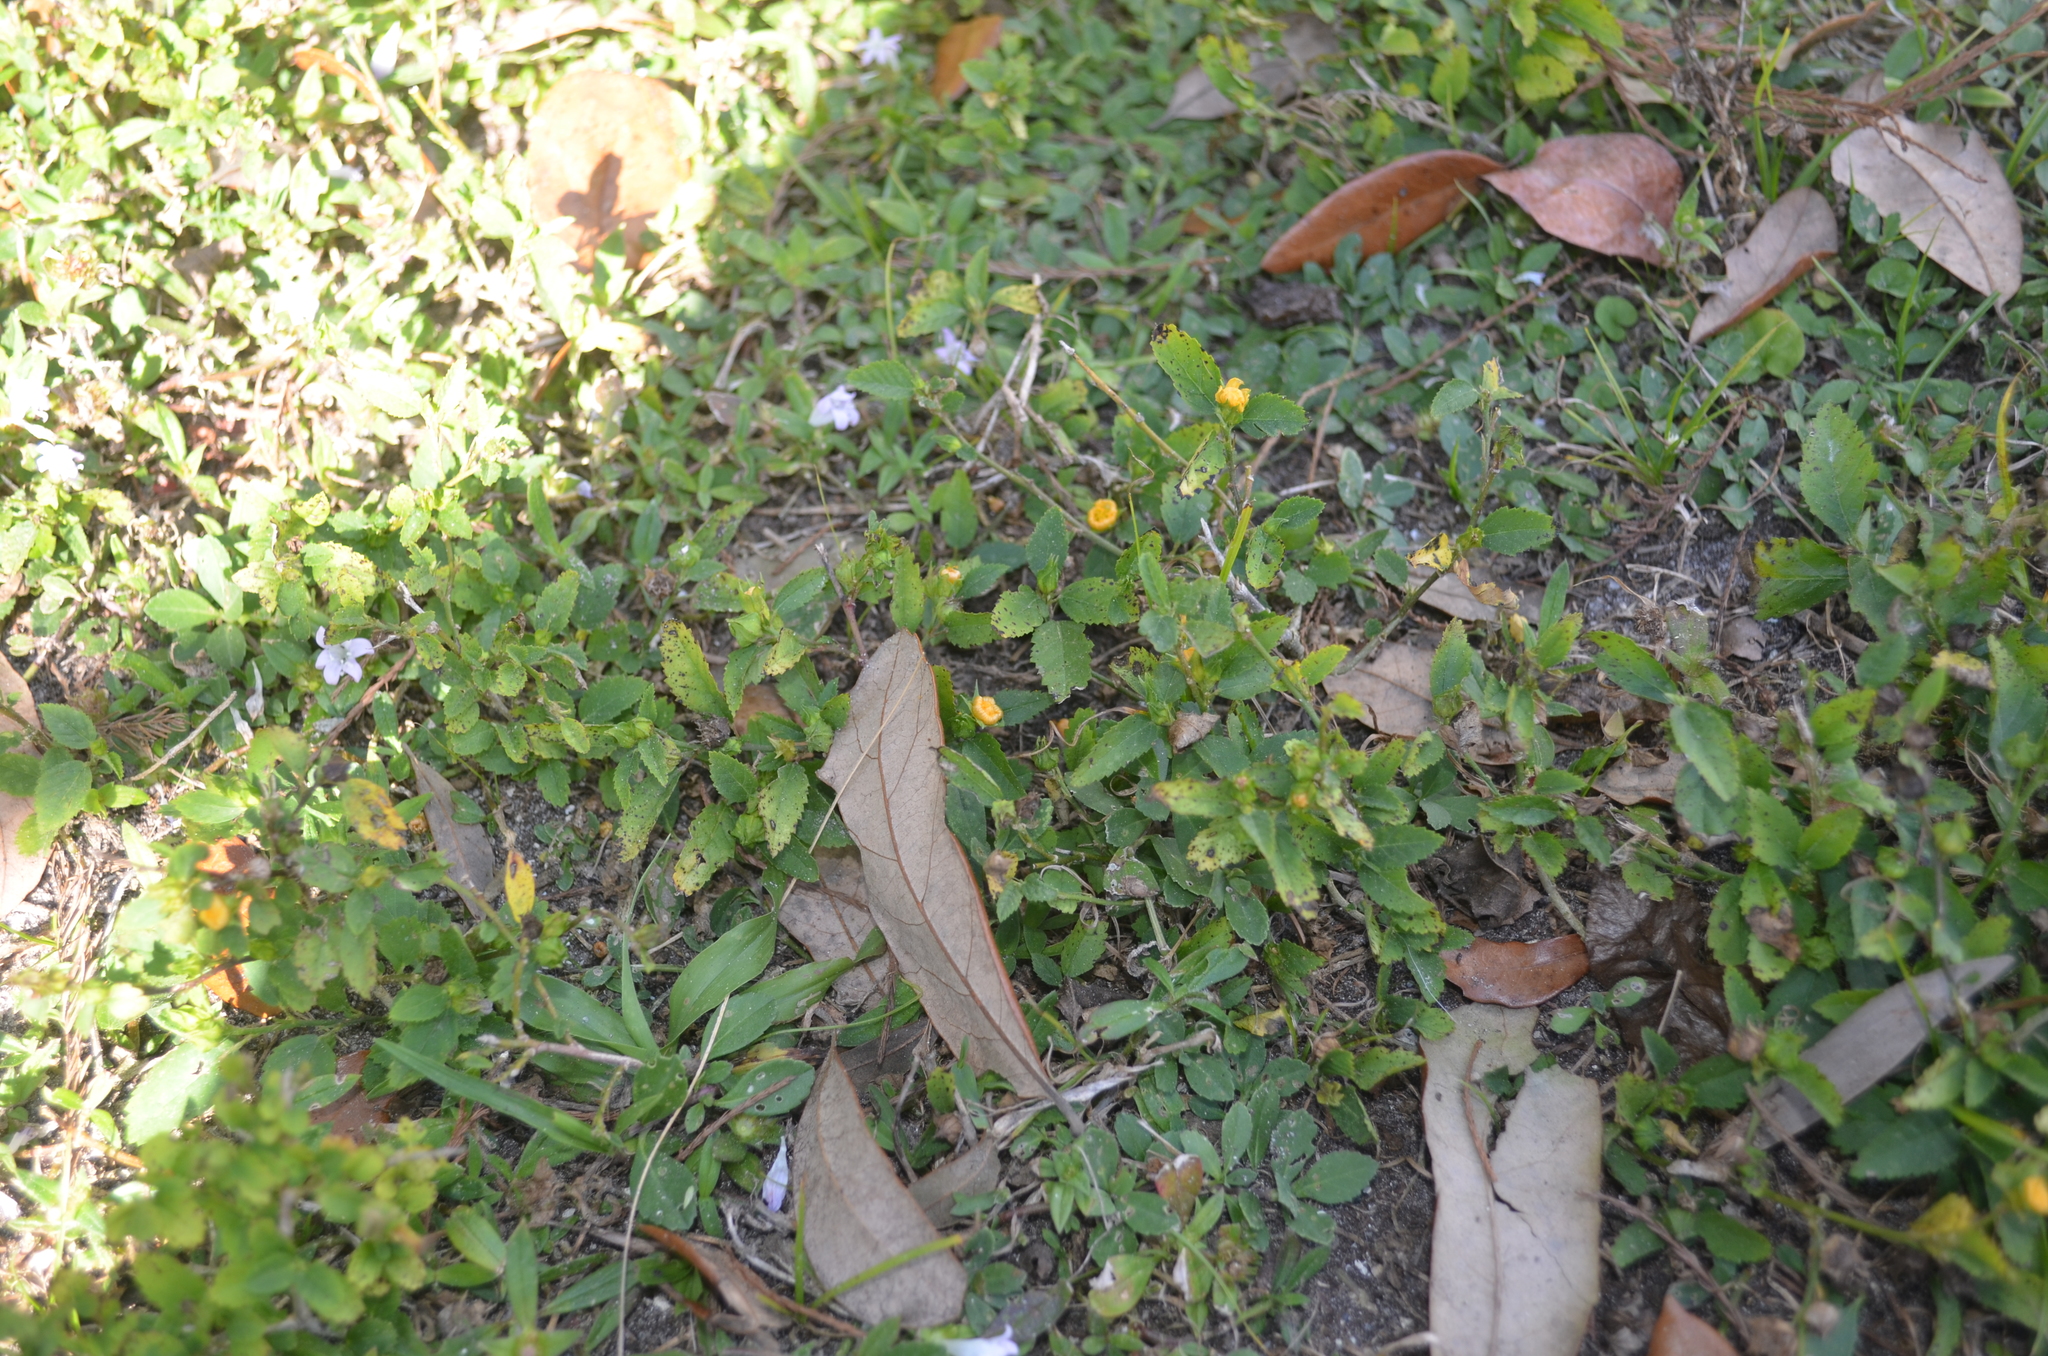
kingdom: Plantae
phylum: Tracheophyta
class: Magnoliopsida
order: Malvales
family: Malvaceae
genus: Sida
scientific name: Sida ulmifolia
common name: Broom weed
